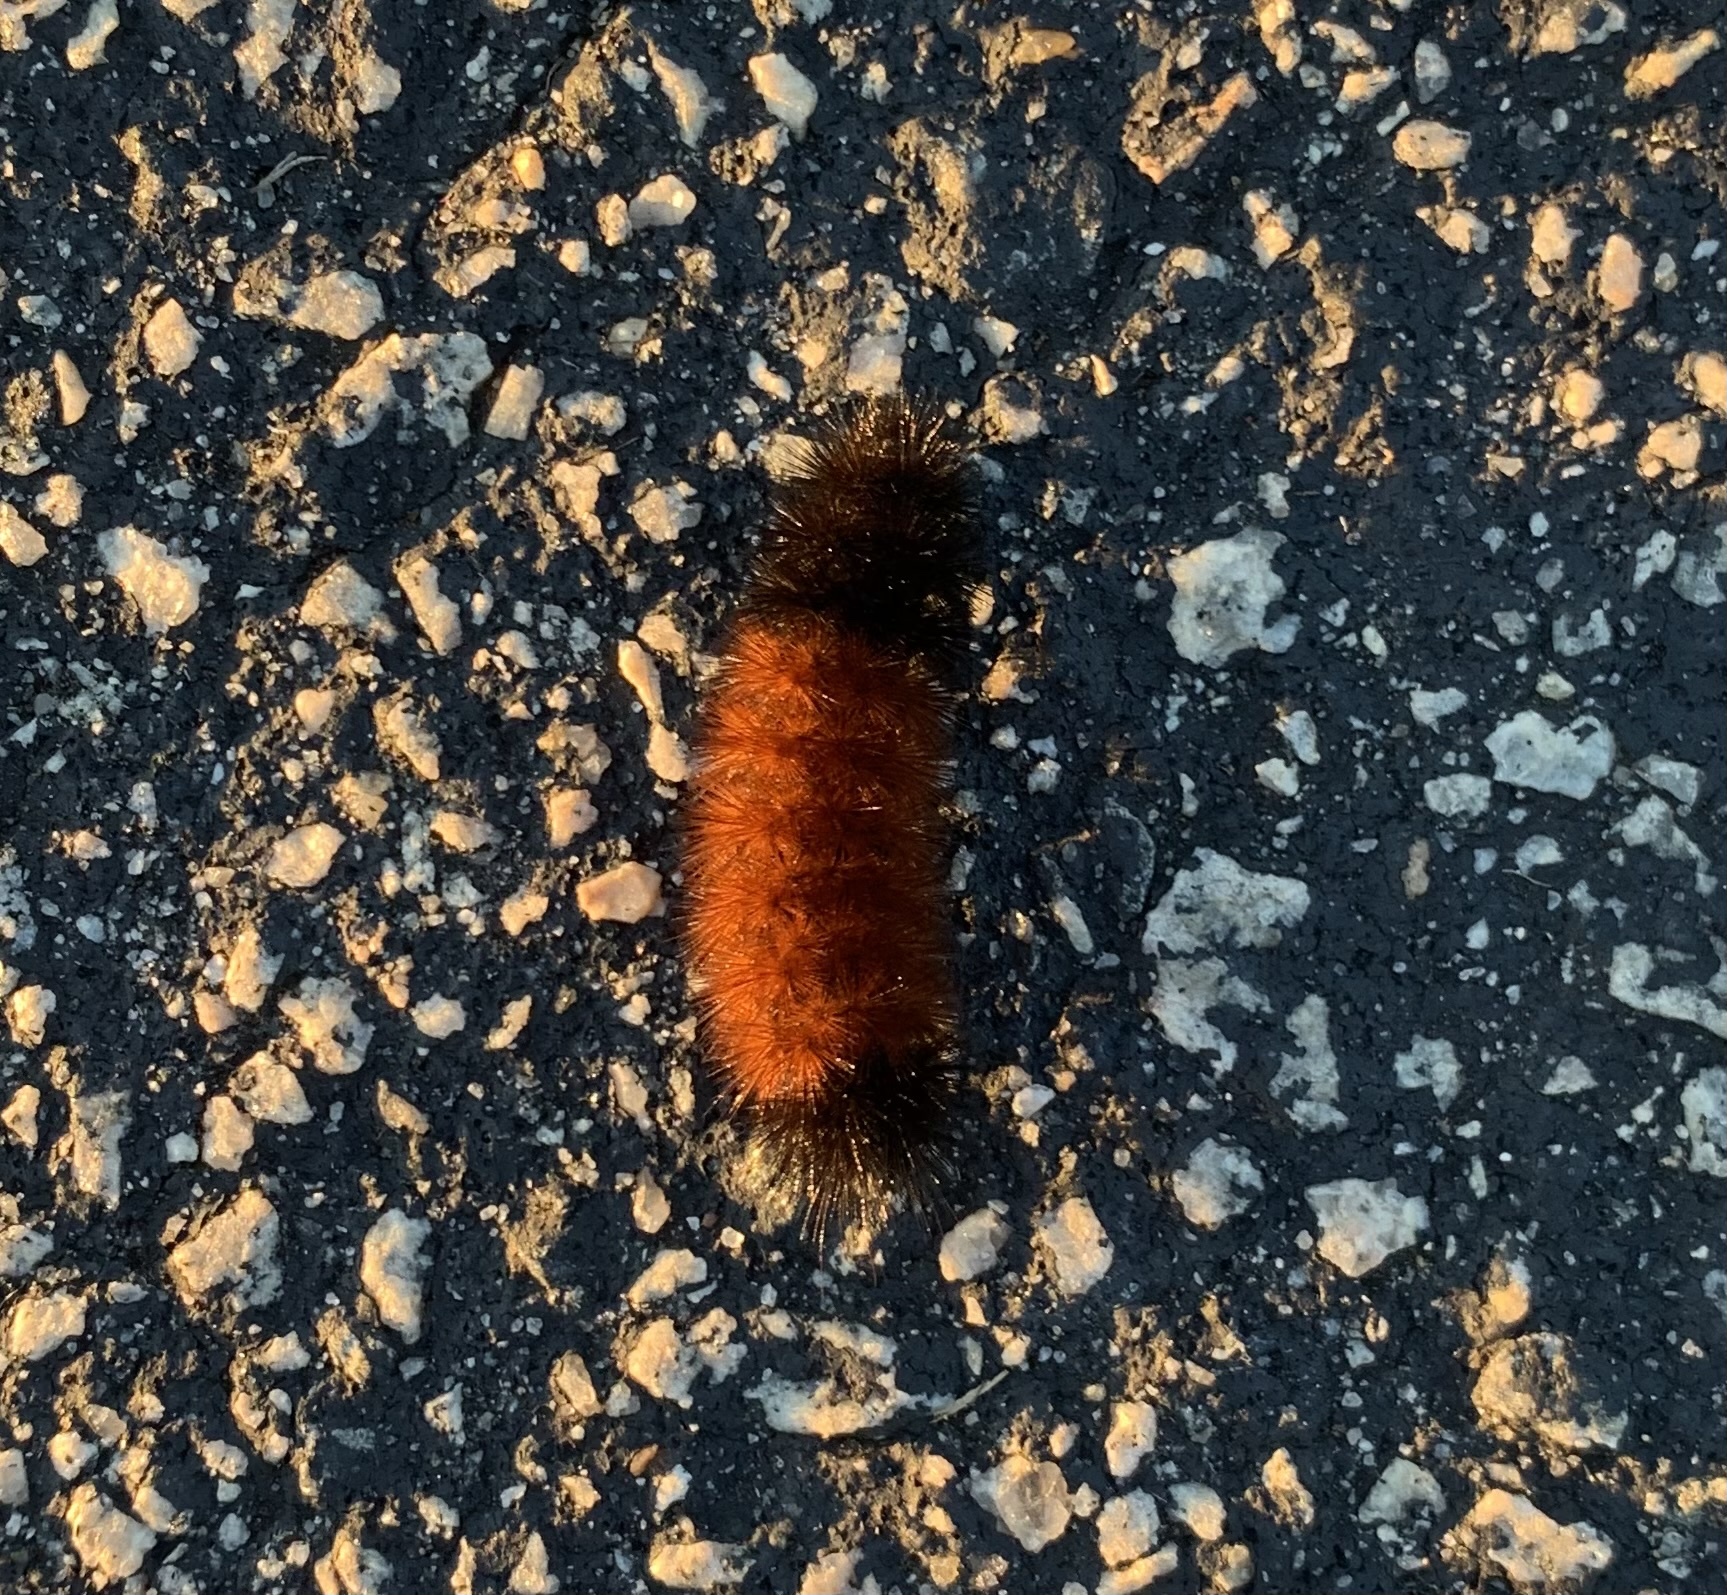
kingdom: Animalia
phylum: Arthropoda
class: Insecta
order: Lepidoptera
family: Erebidae
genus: Pyrrharctia
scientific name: Pyrrharctia isabella
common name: Isabella tiger moth
